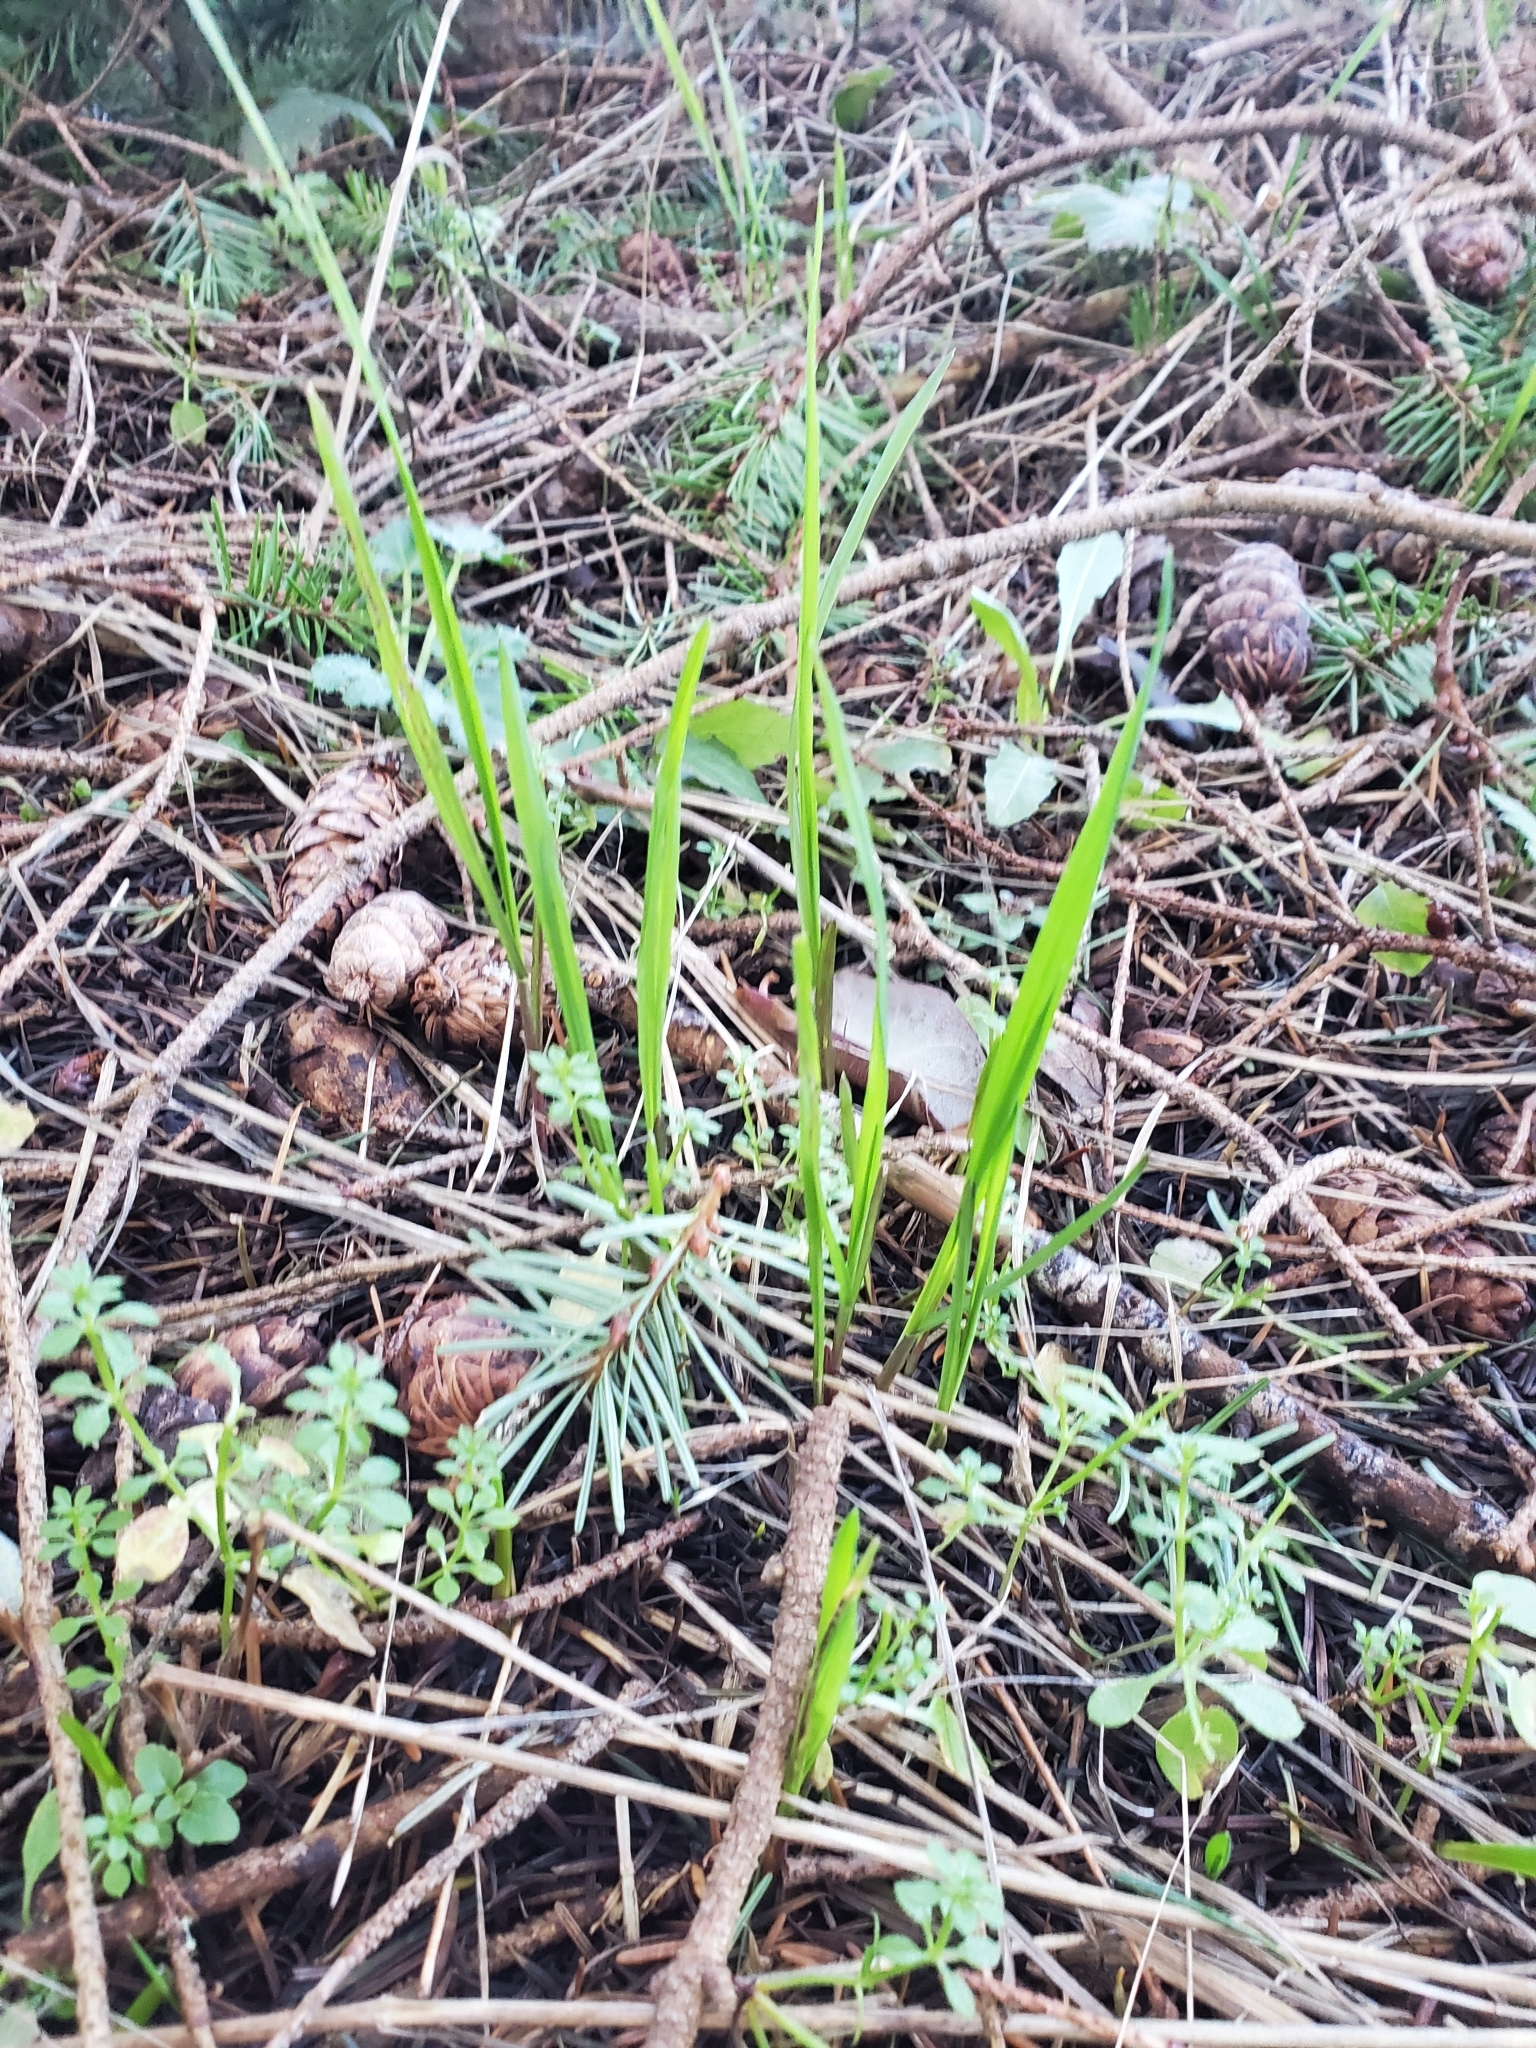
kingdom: Plantae
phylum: Tracheophyta
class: Liliopsida
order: Poales
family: Poaceae
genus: Melica
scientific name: Melica subulata
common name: Tapered oniongrass
